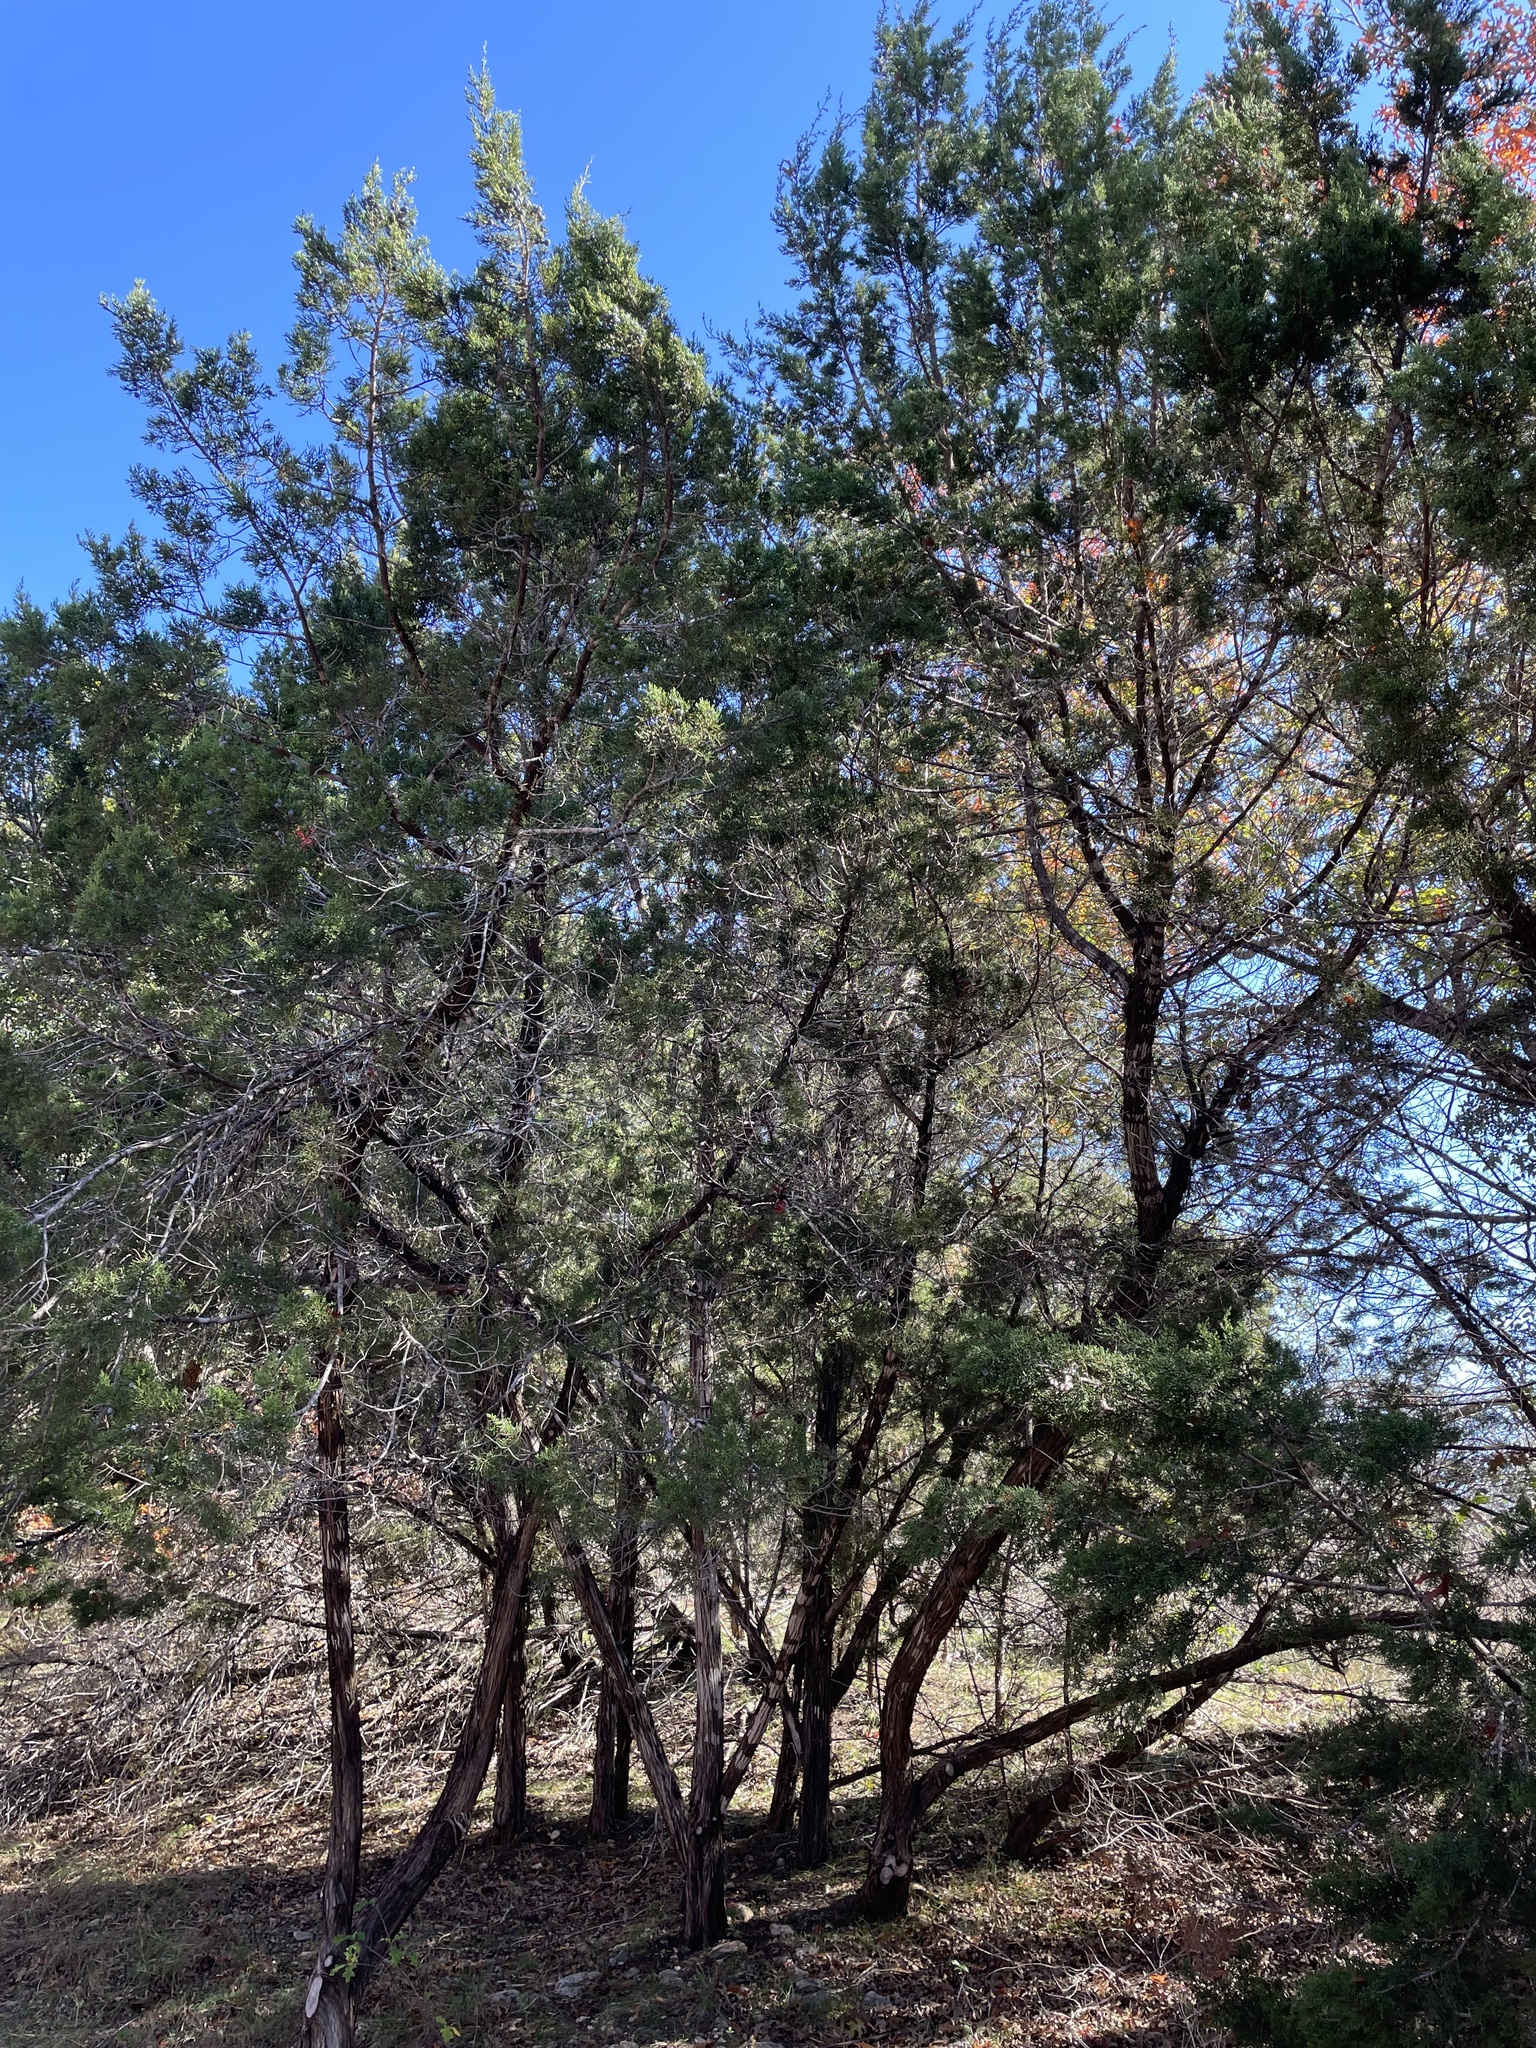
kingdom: Plantae
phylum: Tracheophyta
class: Pinopsida
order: Pinales
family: Cupressaceae
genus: Juniperus
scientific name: Juniperus ashei
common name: Mexican juniper
